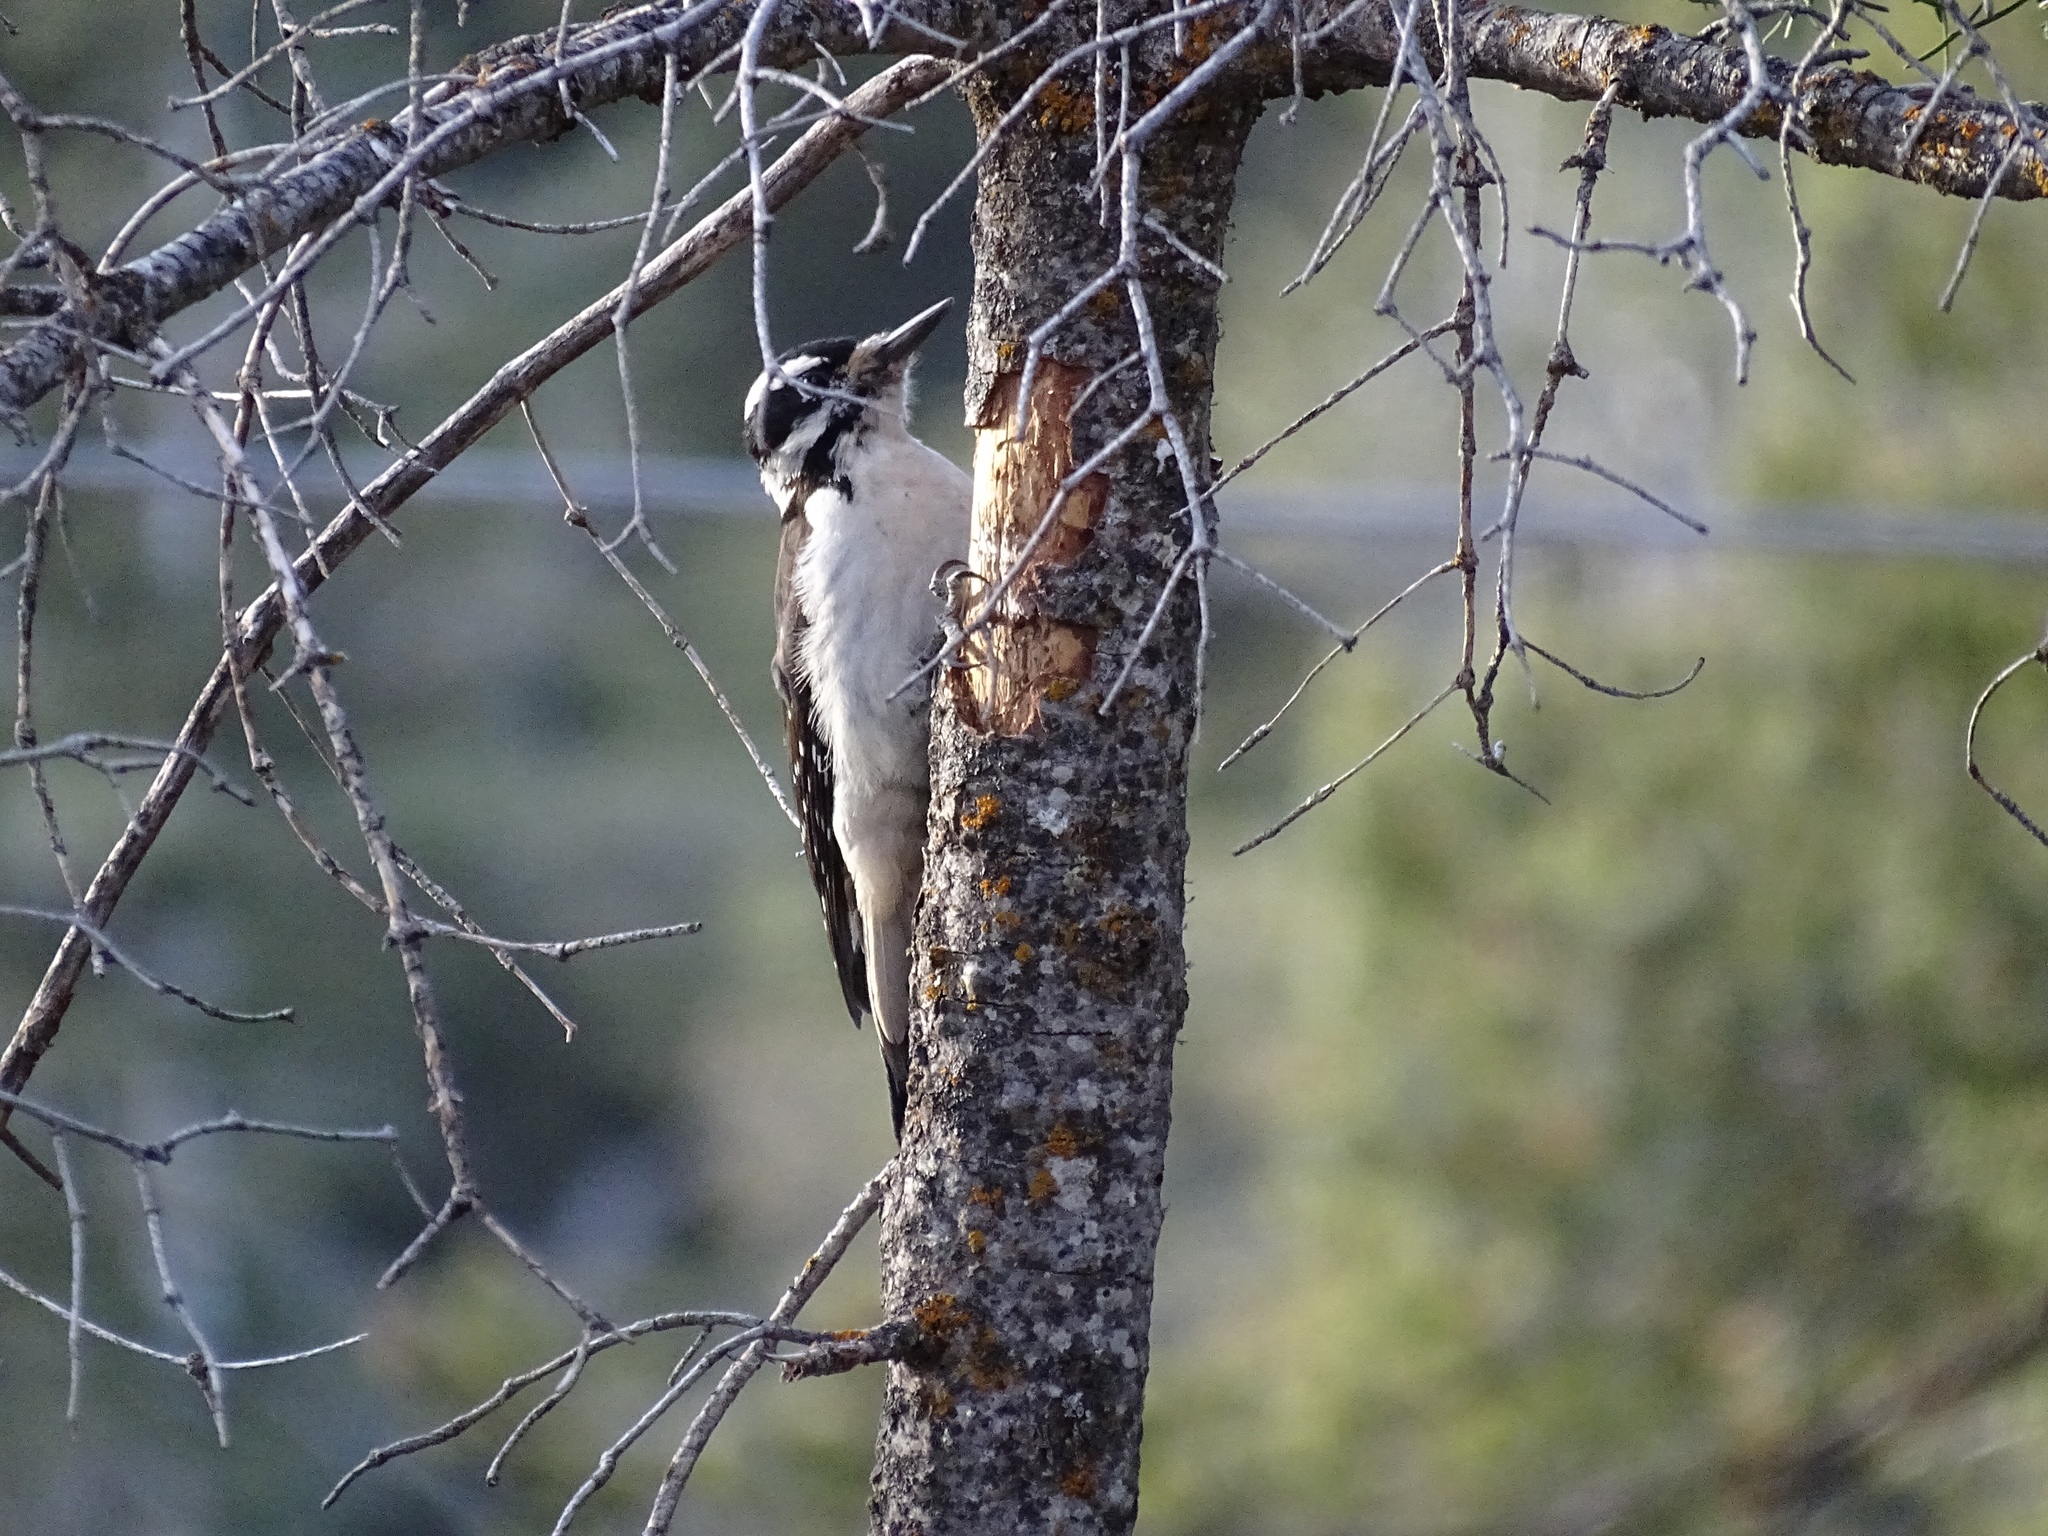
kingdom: Animalia
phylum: Chordata
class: Aves
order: Piciformes
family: Picidae
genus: Leuconotopicus
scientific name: Leuconotopicus villosus
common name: Hairy woodpecker
